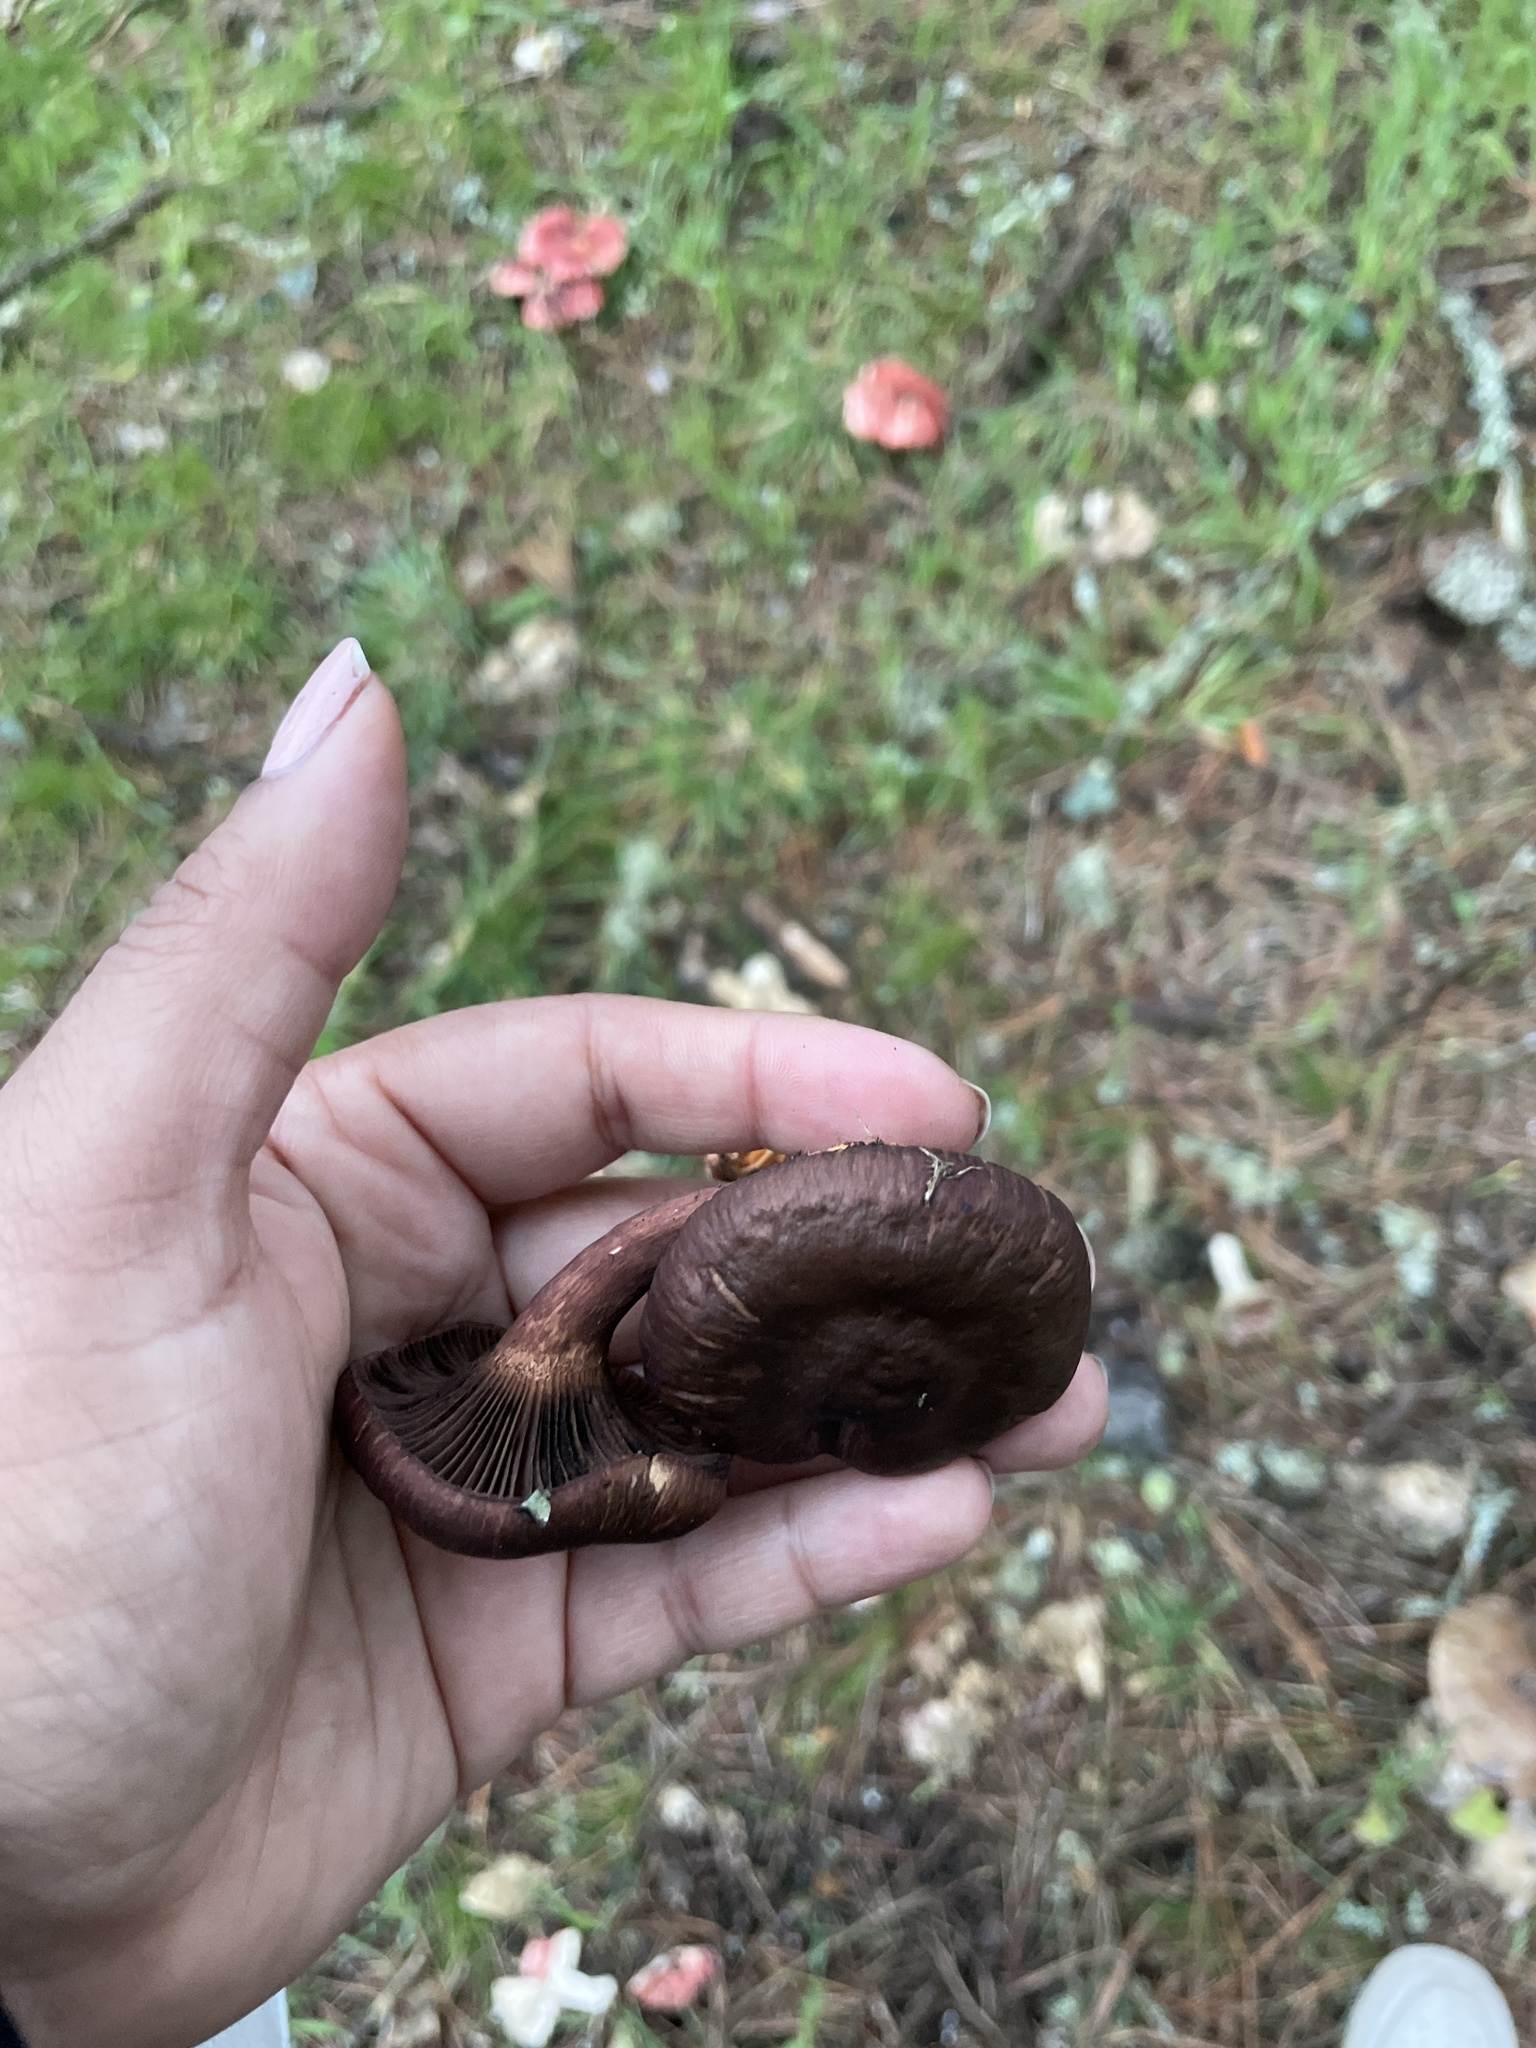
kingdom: Fungi
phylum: Basidiomycota
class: Agaricomycetes
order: Boletales
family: Gomphidiaceae
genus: Chroogomphus
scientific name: Chroogomphus vinicolor
